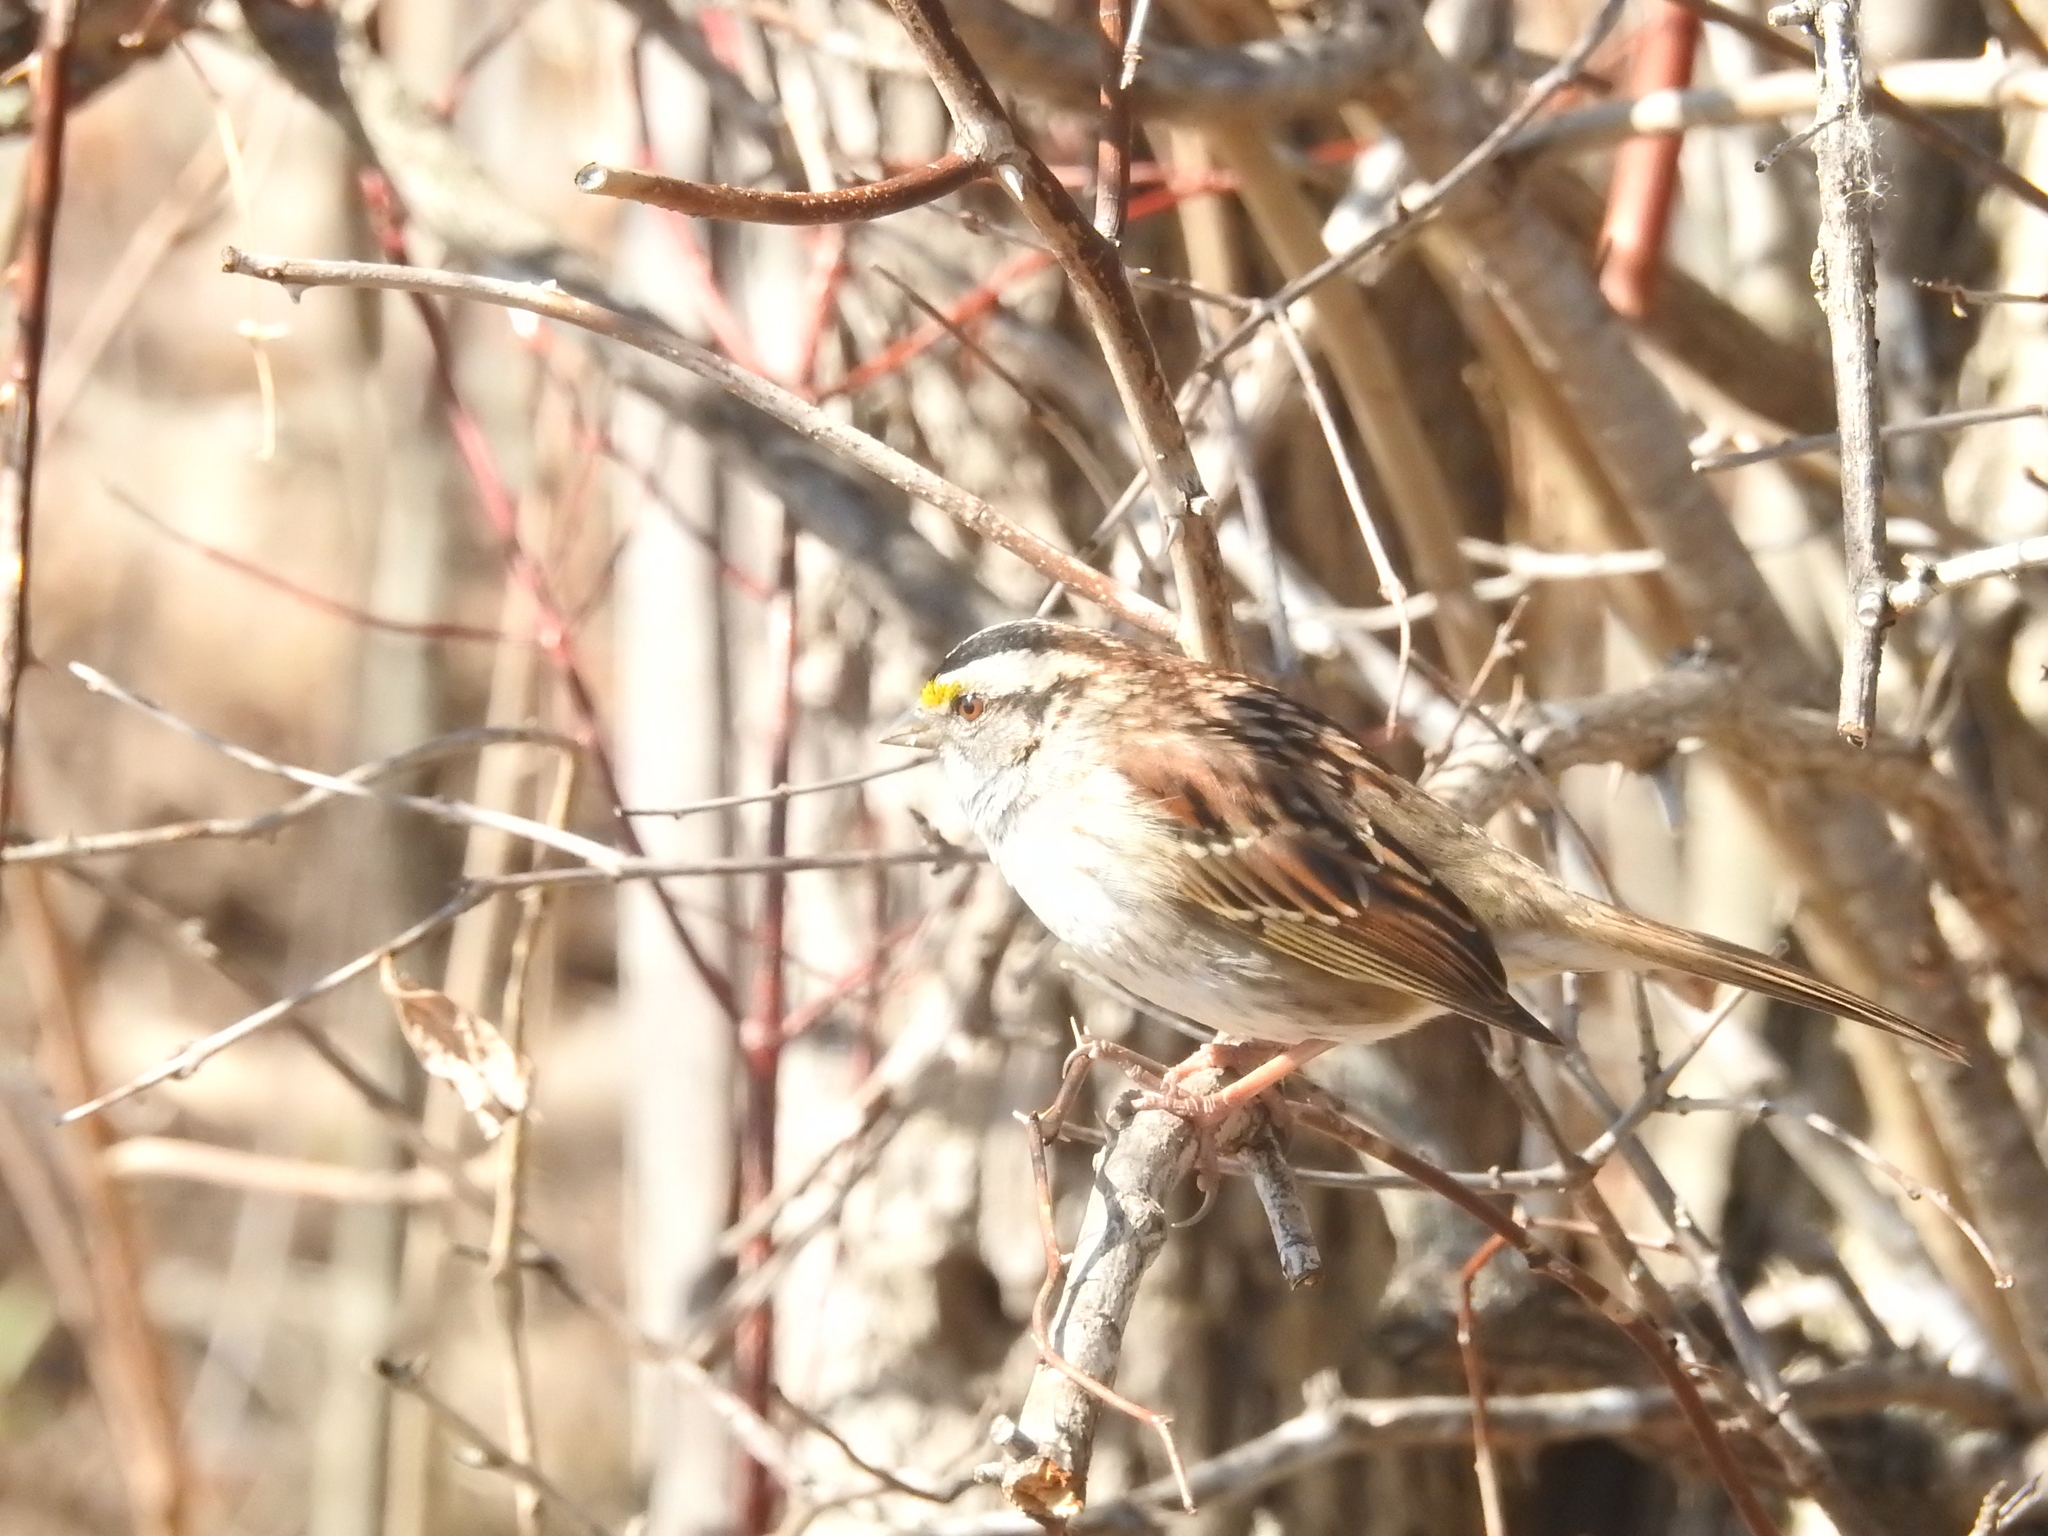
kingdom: Animalia
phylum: Chordata
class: Aves
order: Passeriformes
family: Passerellidae
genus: Zonotrichia
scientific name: Zonotrichia albicollis
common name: White-throated sparrow
